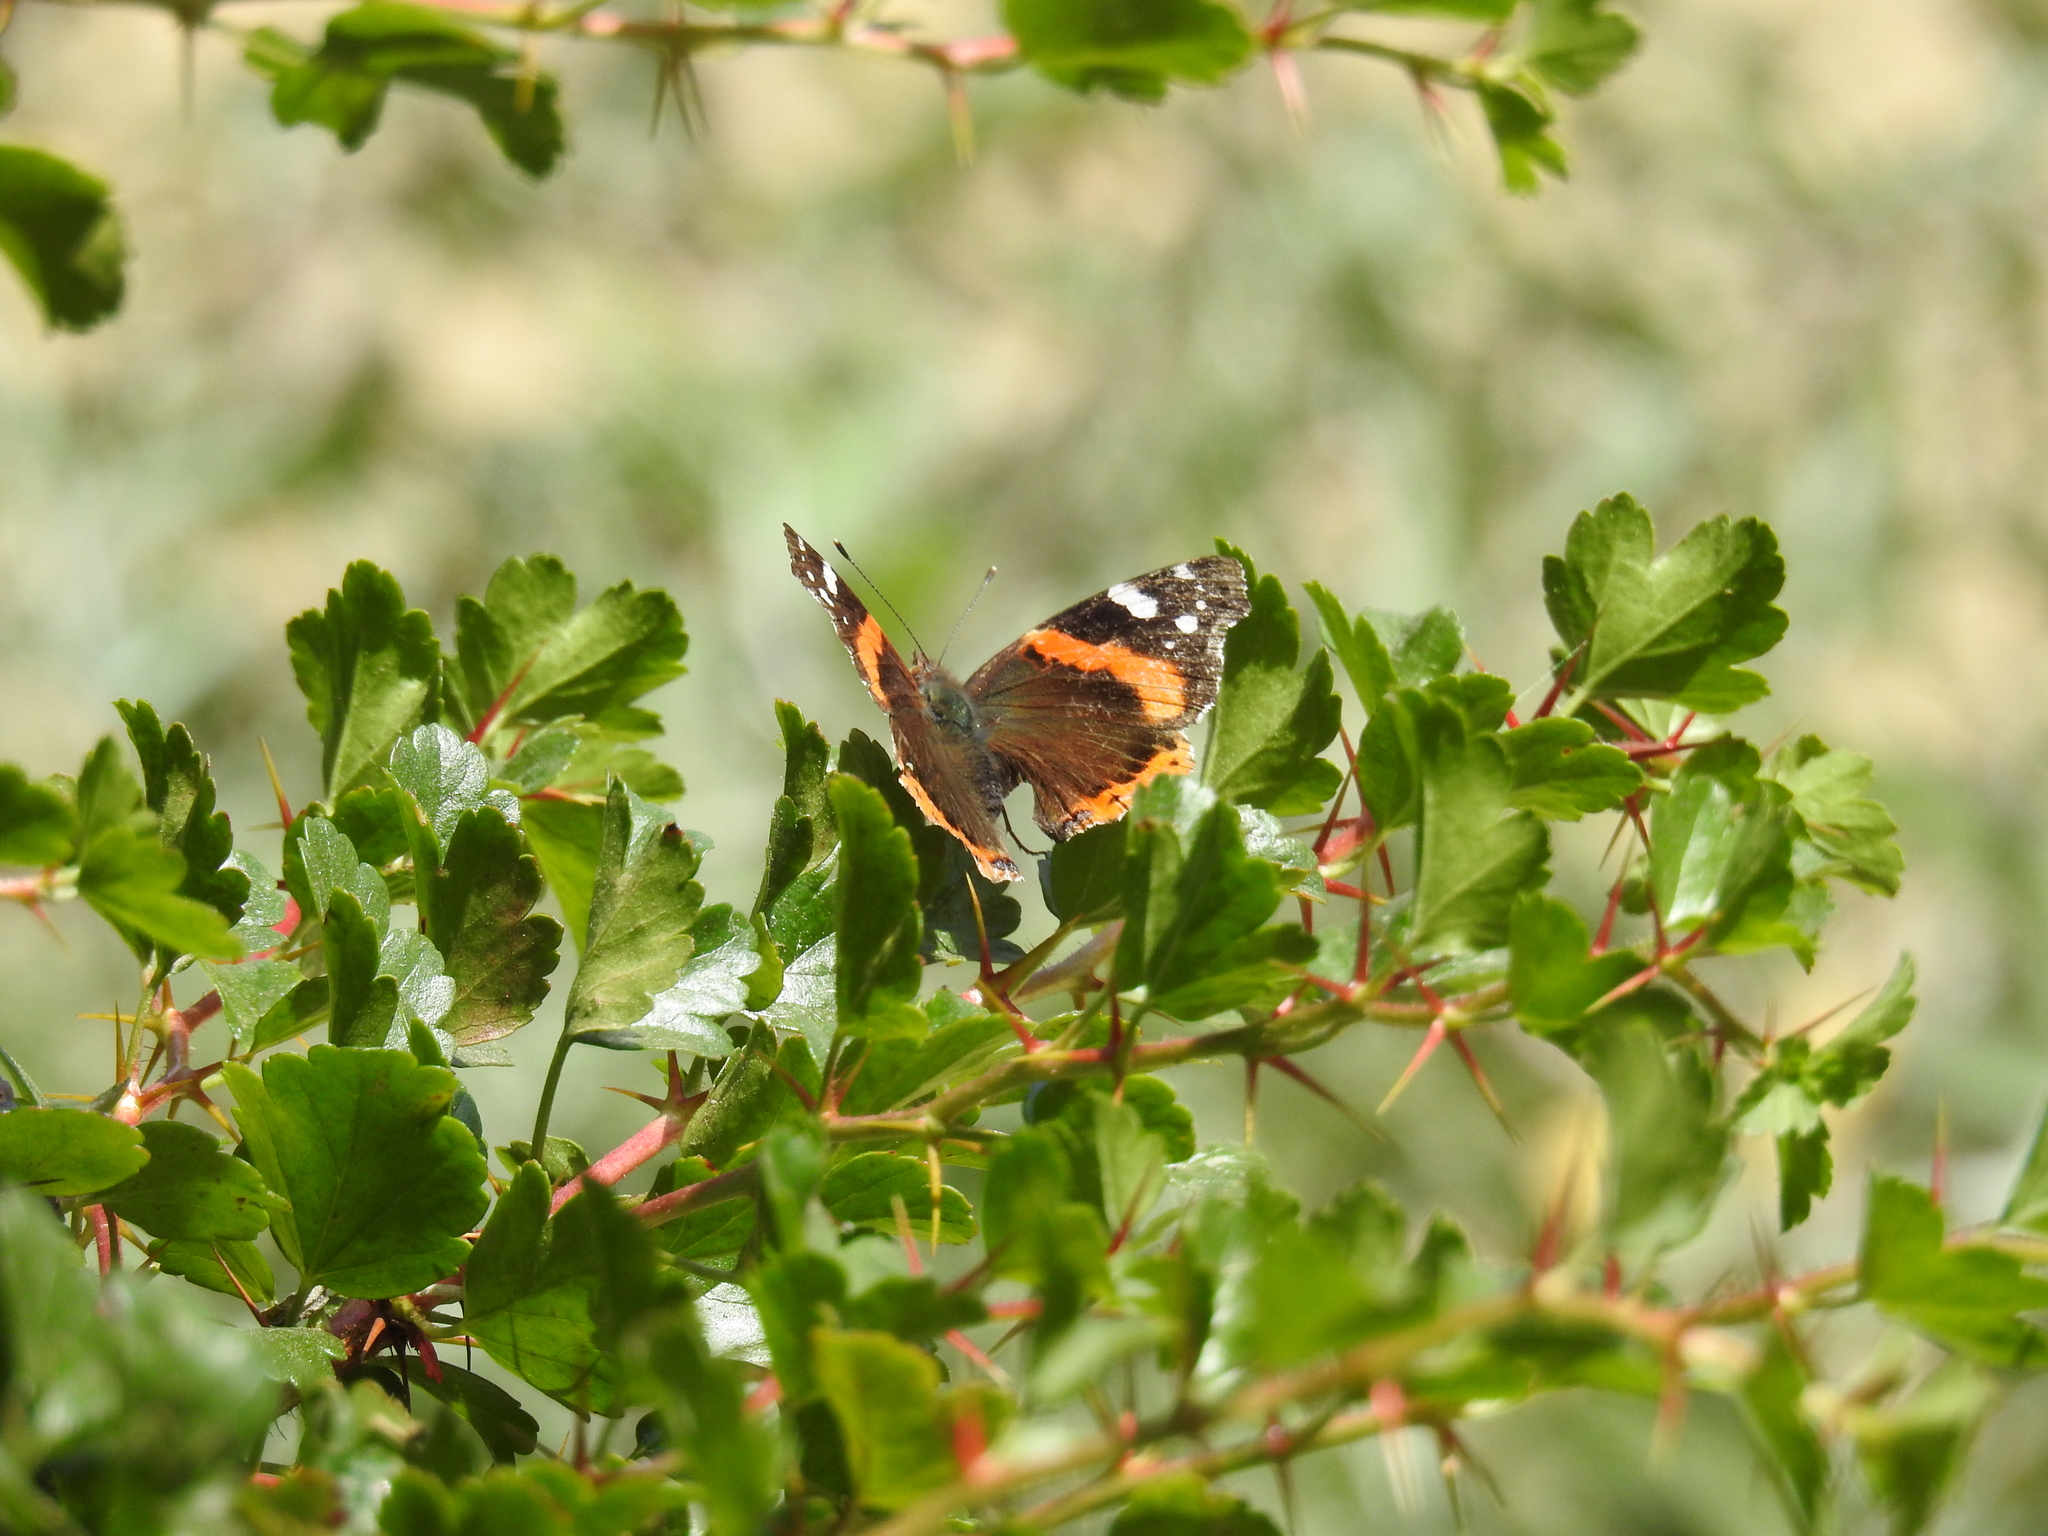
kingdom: Animalia
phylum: Arthropoda
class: Insecta
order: Lepidoptera
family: Nymphalidae
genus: Vanessa
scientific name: Vanessa atalanta
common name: Red admiral
